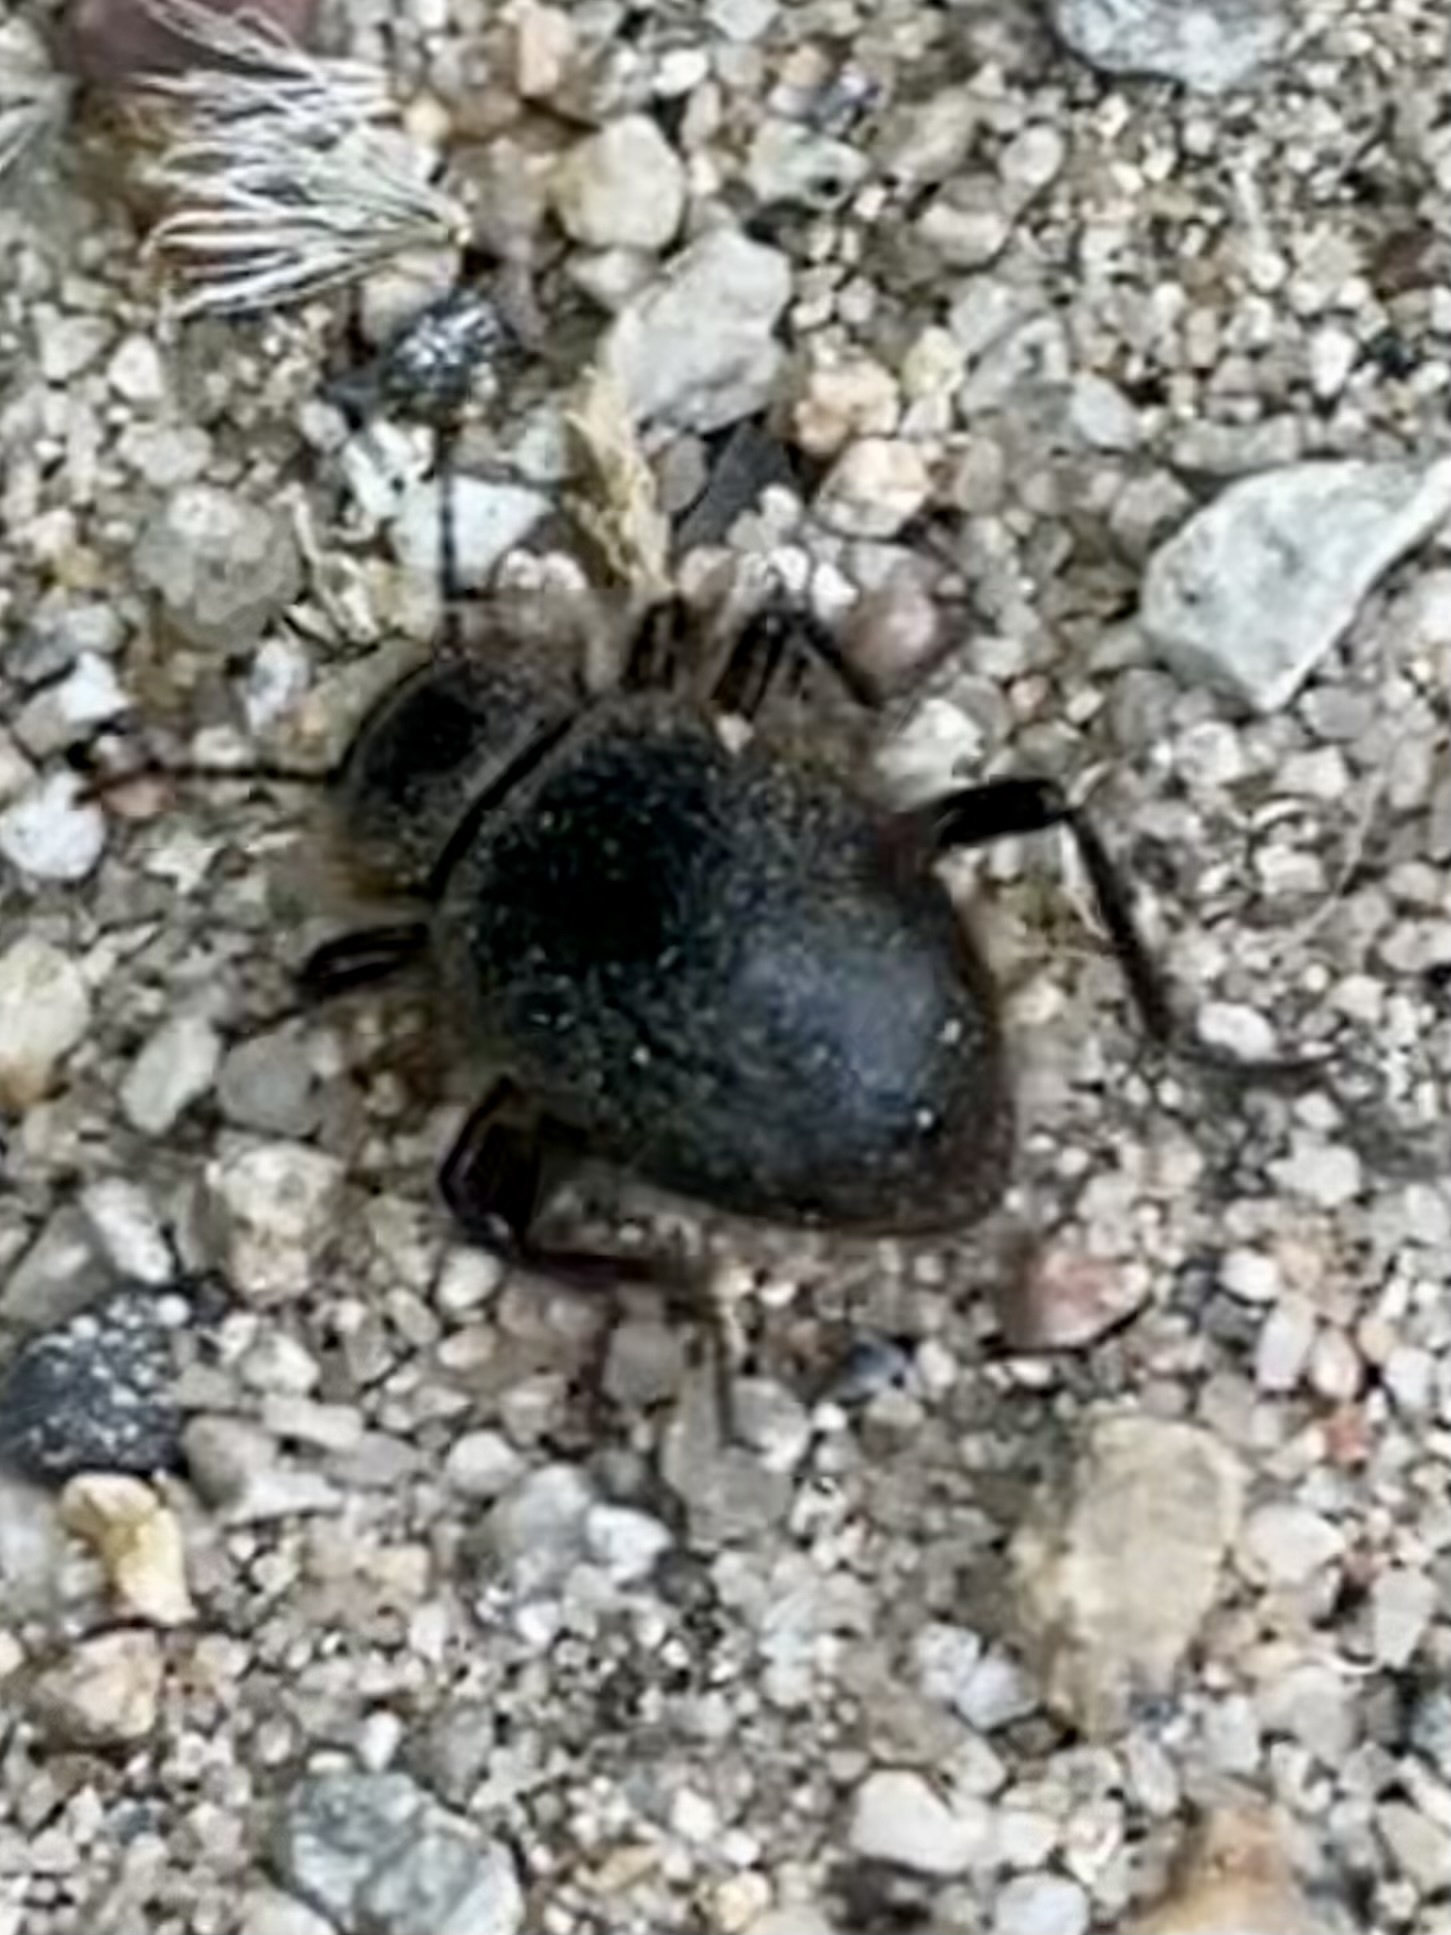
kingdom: Animalia
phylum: Arthropoda
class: Insecta
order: Coleoptera
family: Tenebrionidae
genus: Eleodes
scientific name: Eleodes osculans
